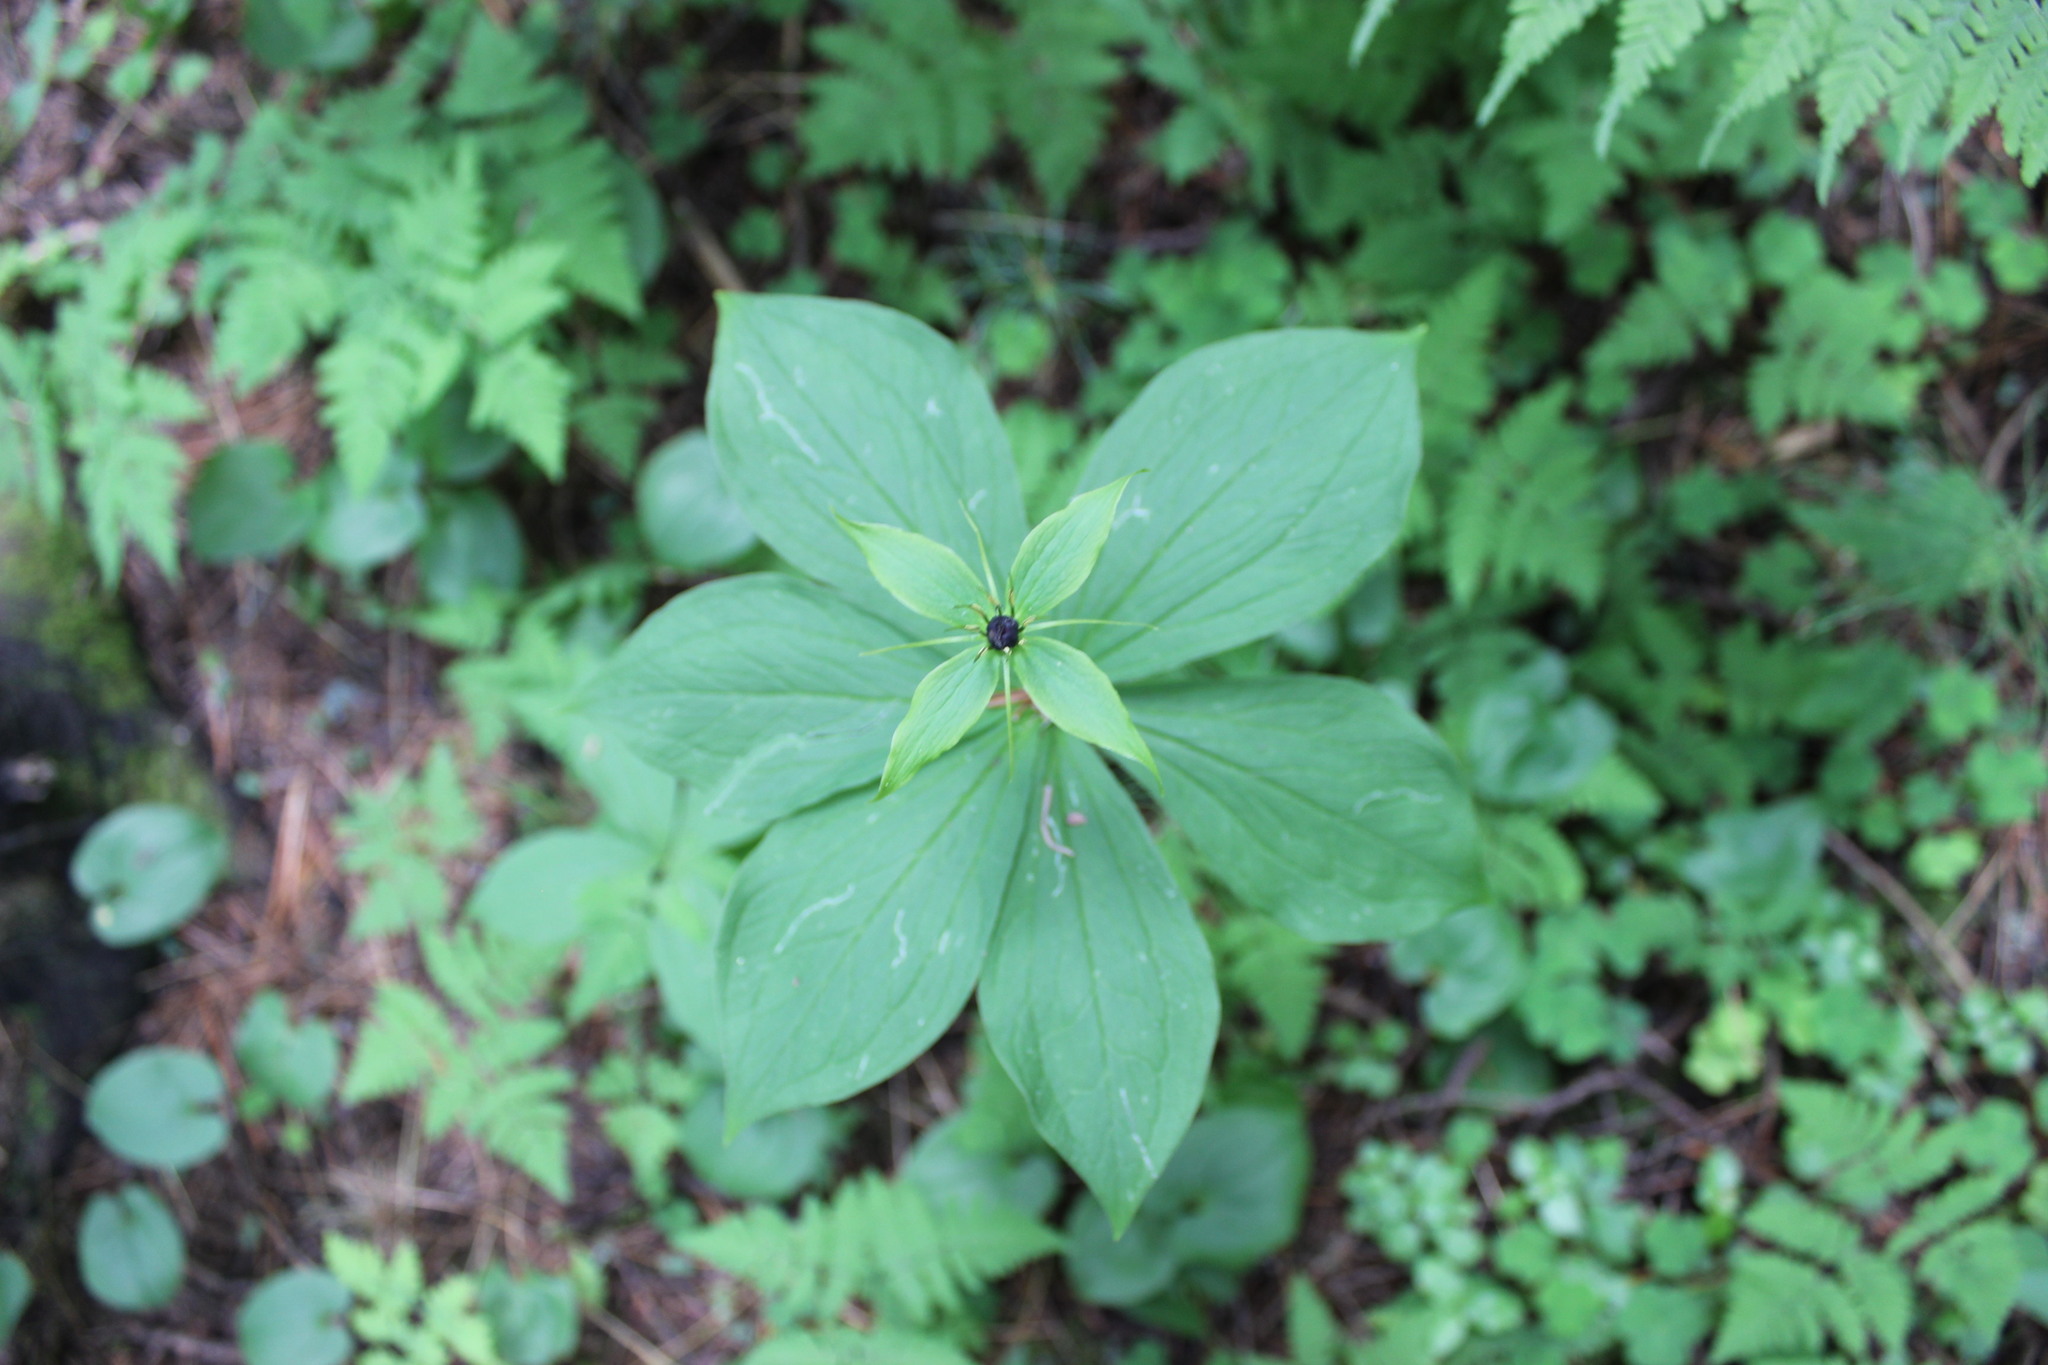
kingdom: Plantae
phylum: Tracheophyta
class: Liliopsida
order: Liliales
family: Melanthiaceae
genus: Paris
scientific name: Paris verticillata
